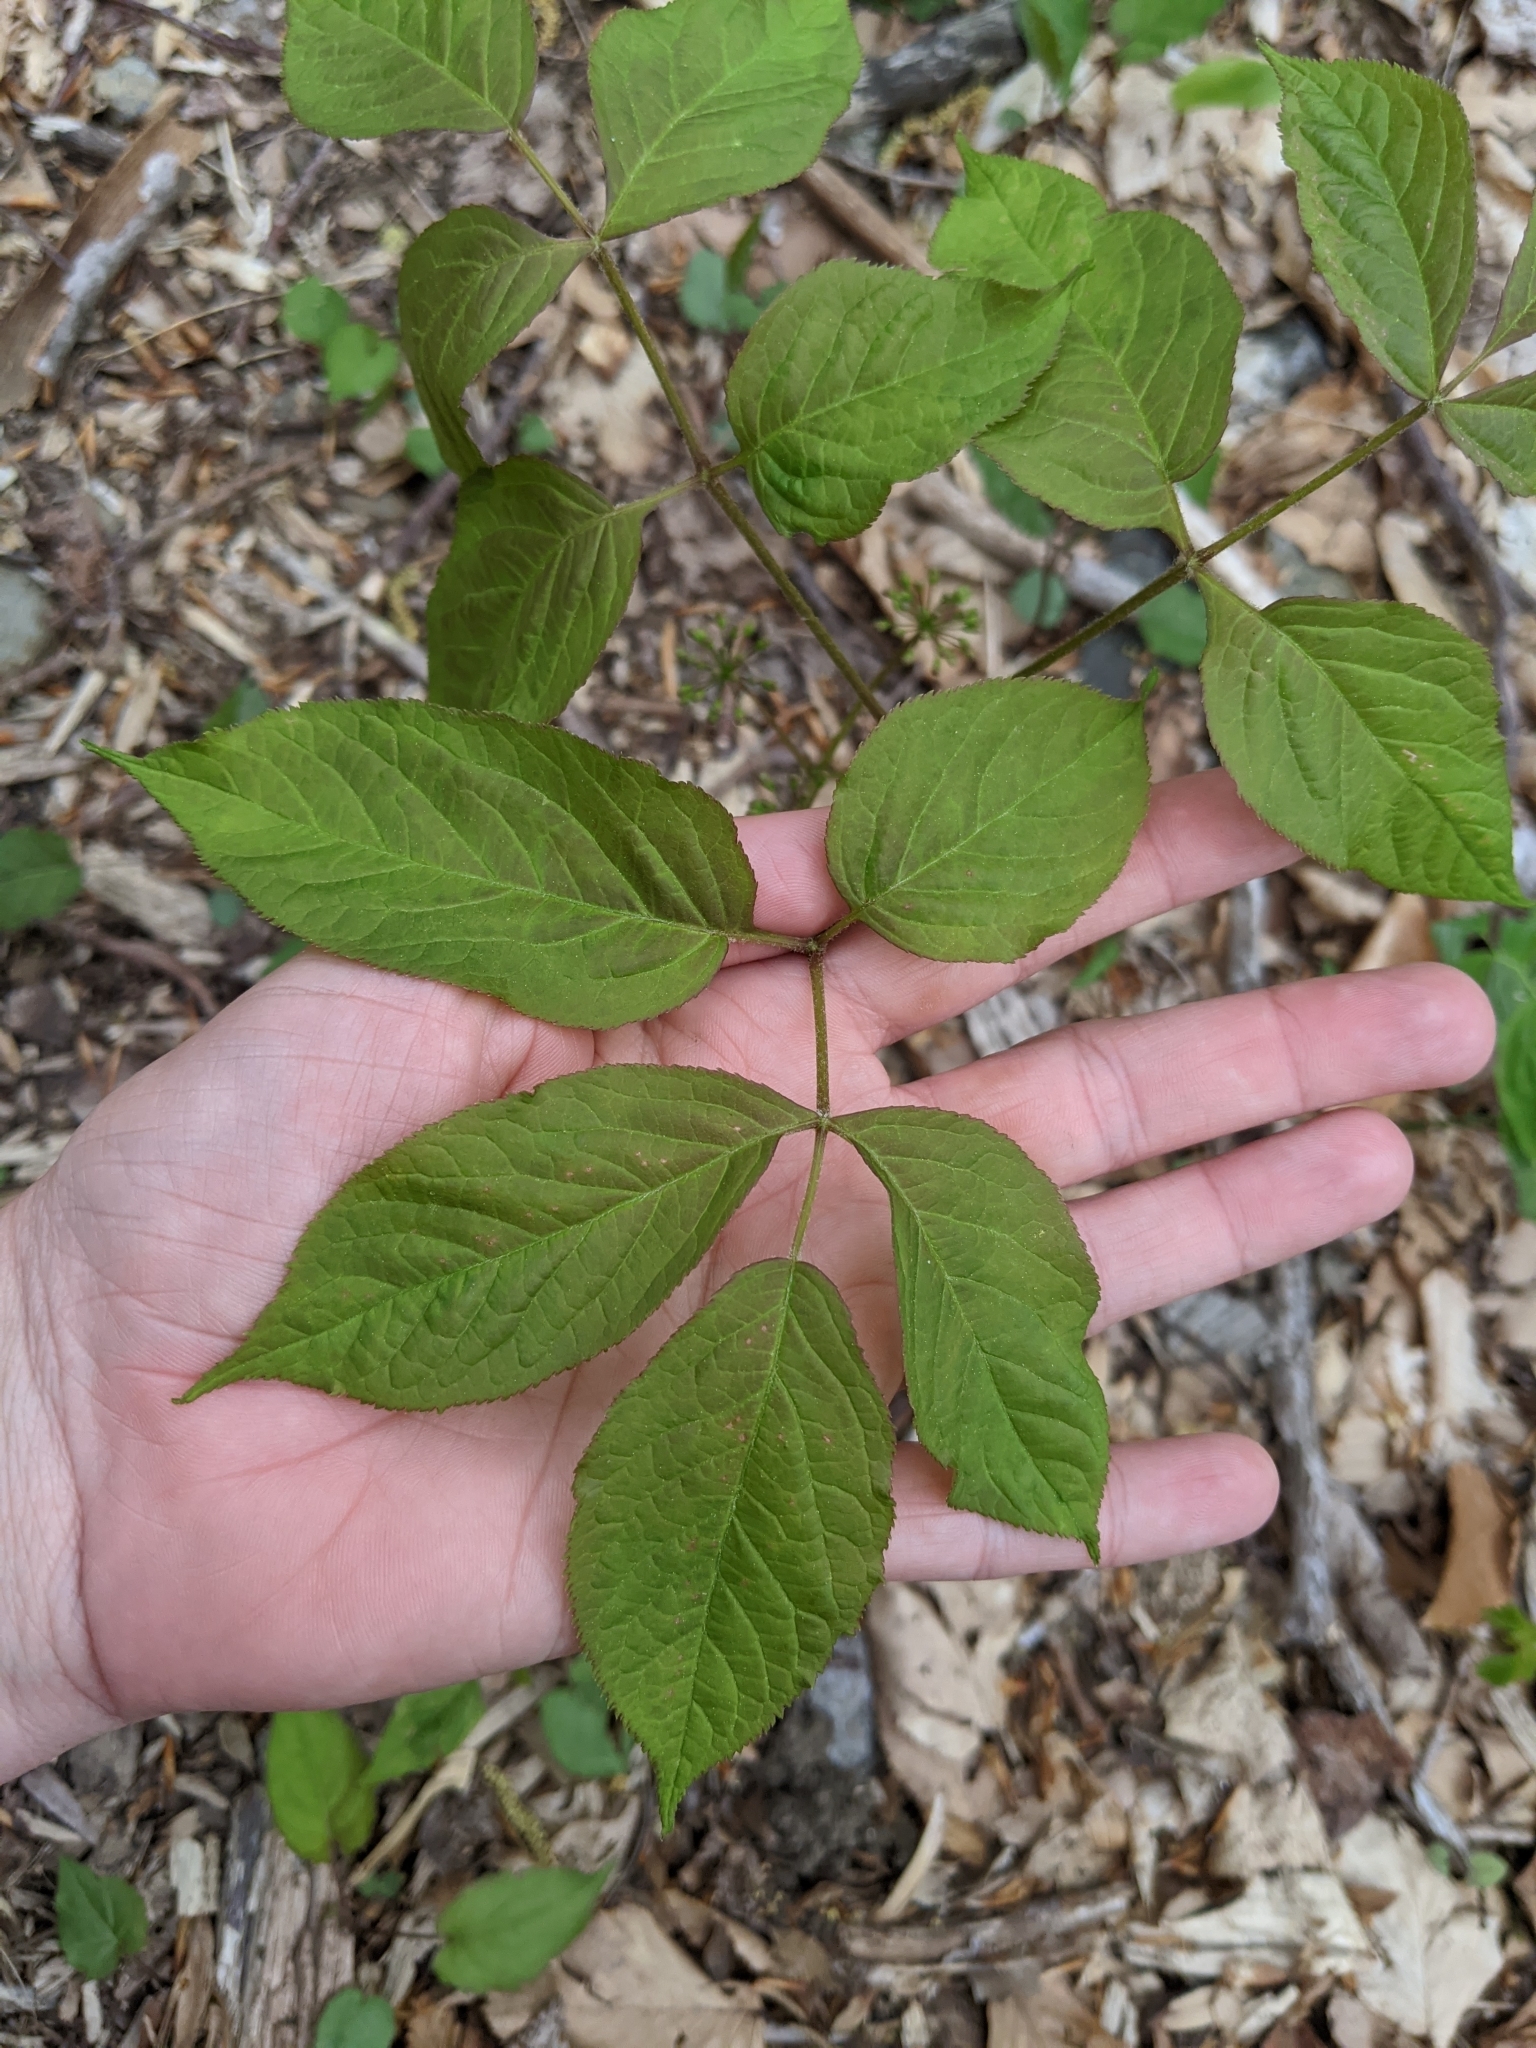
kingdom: Plantae
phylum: Tracheophyta
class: Magnoliopsida
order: Apiales
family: Araliaceae
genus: Aralia
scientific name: Aralia nudicaulis
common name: Wild sarsaparilla
